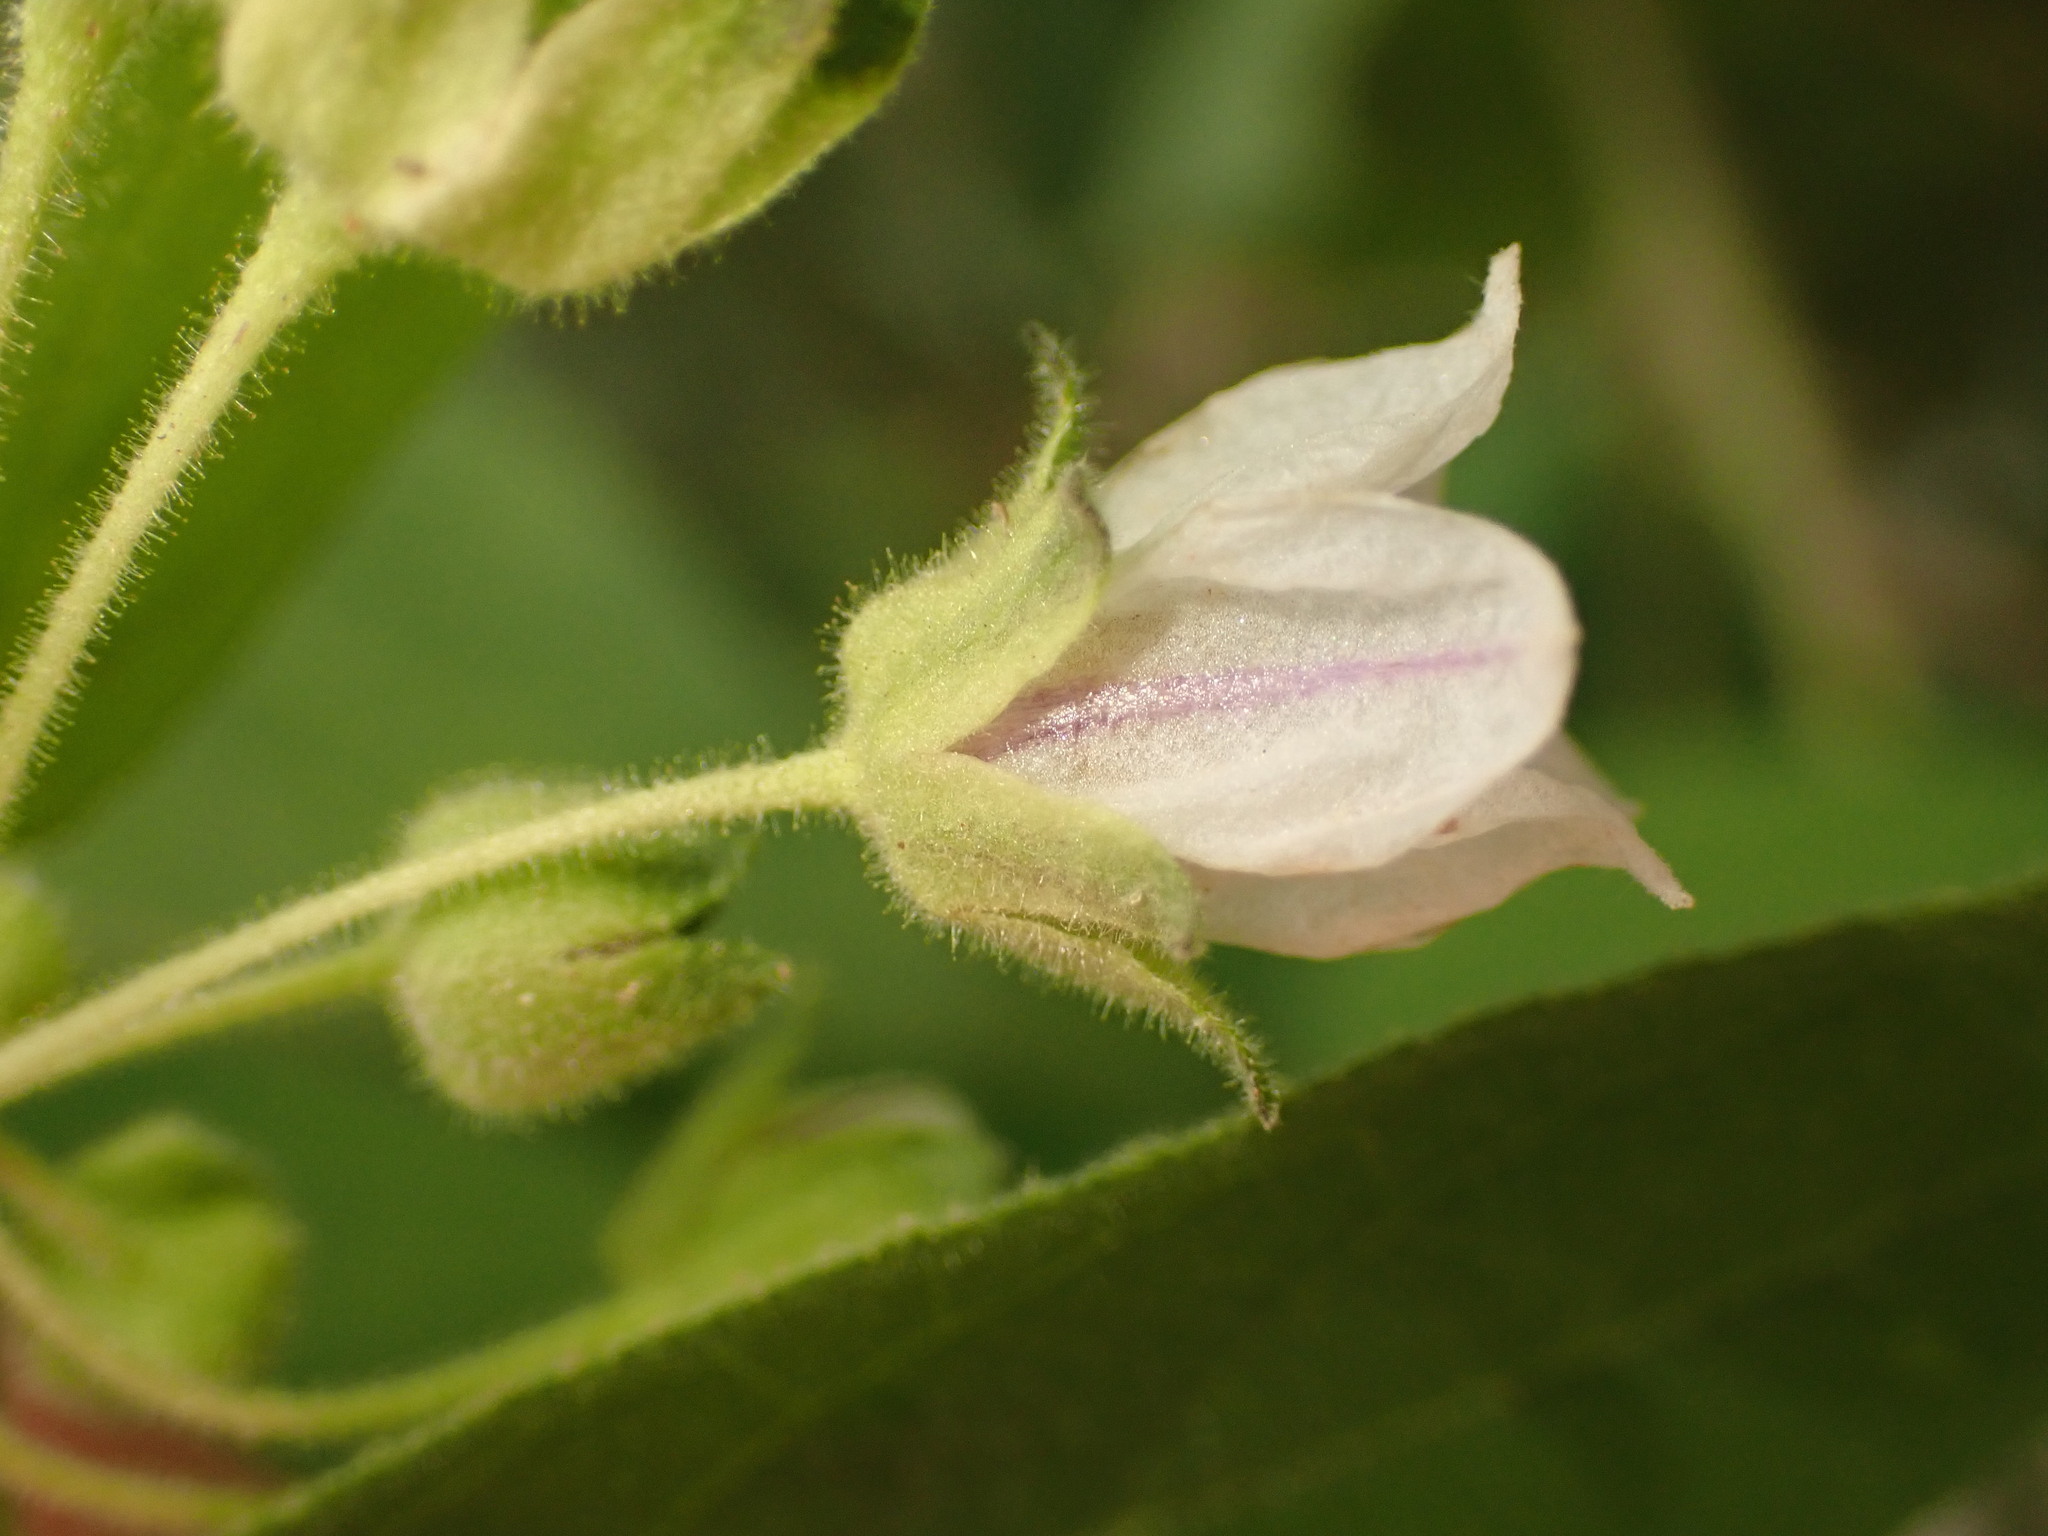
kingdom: Plantae
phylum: Tracheophyta
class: Magnoliopsida
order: Solanales
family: Solanaceae
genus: Solanum
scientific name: Solanum didymum
